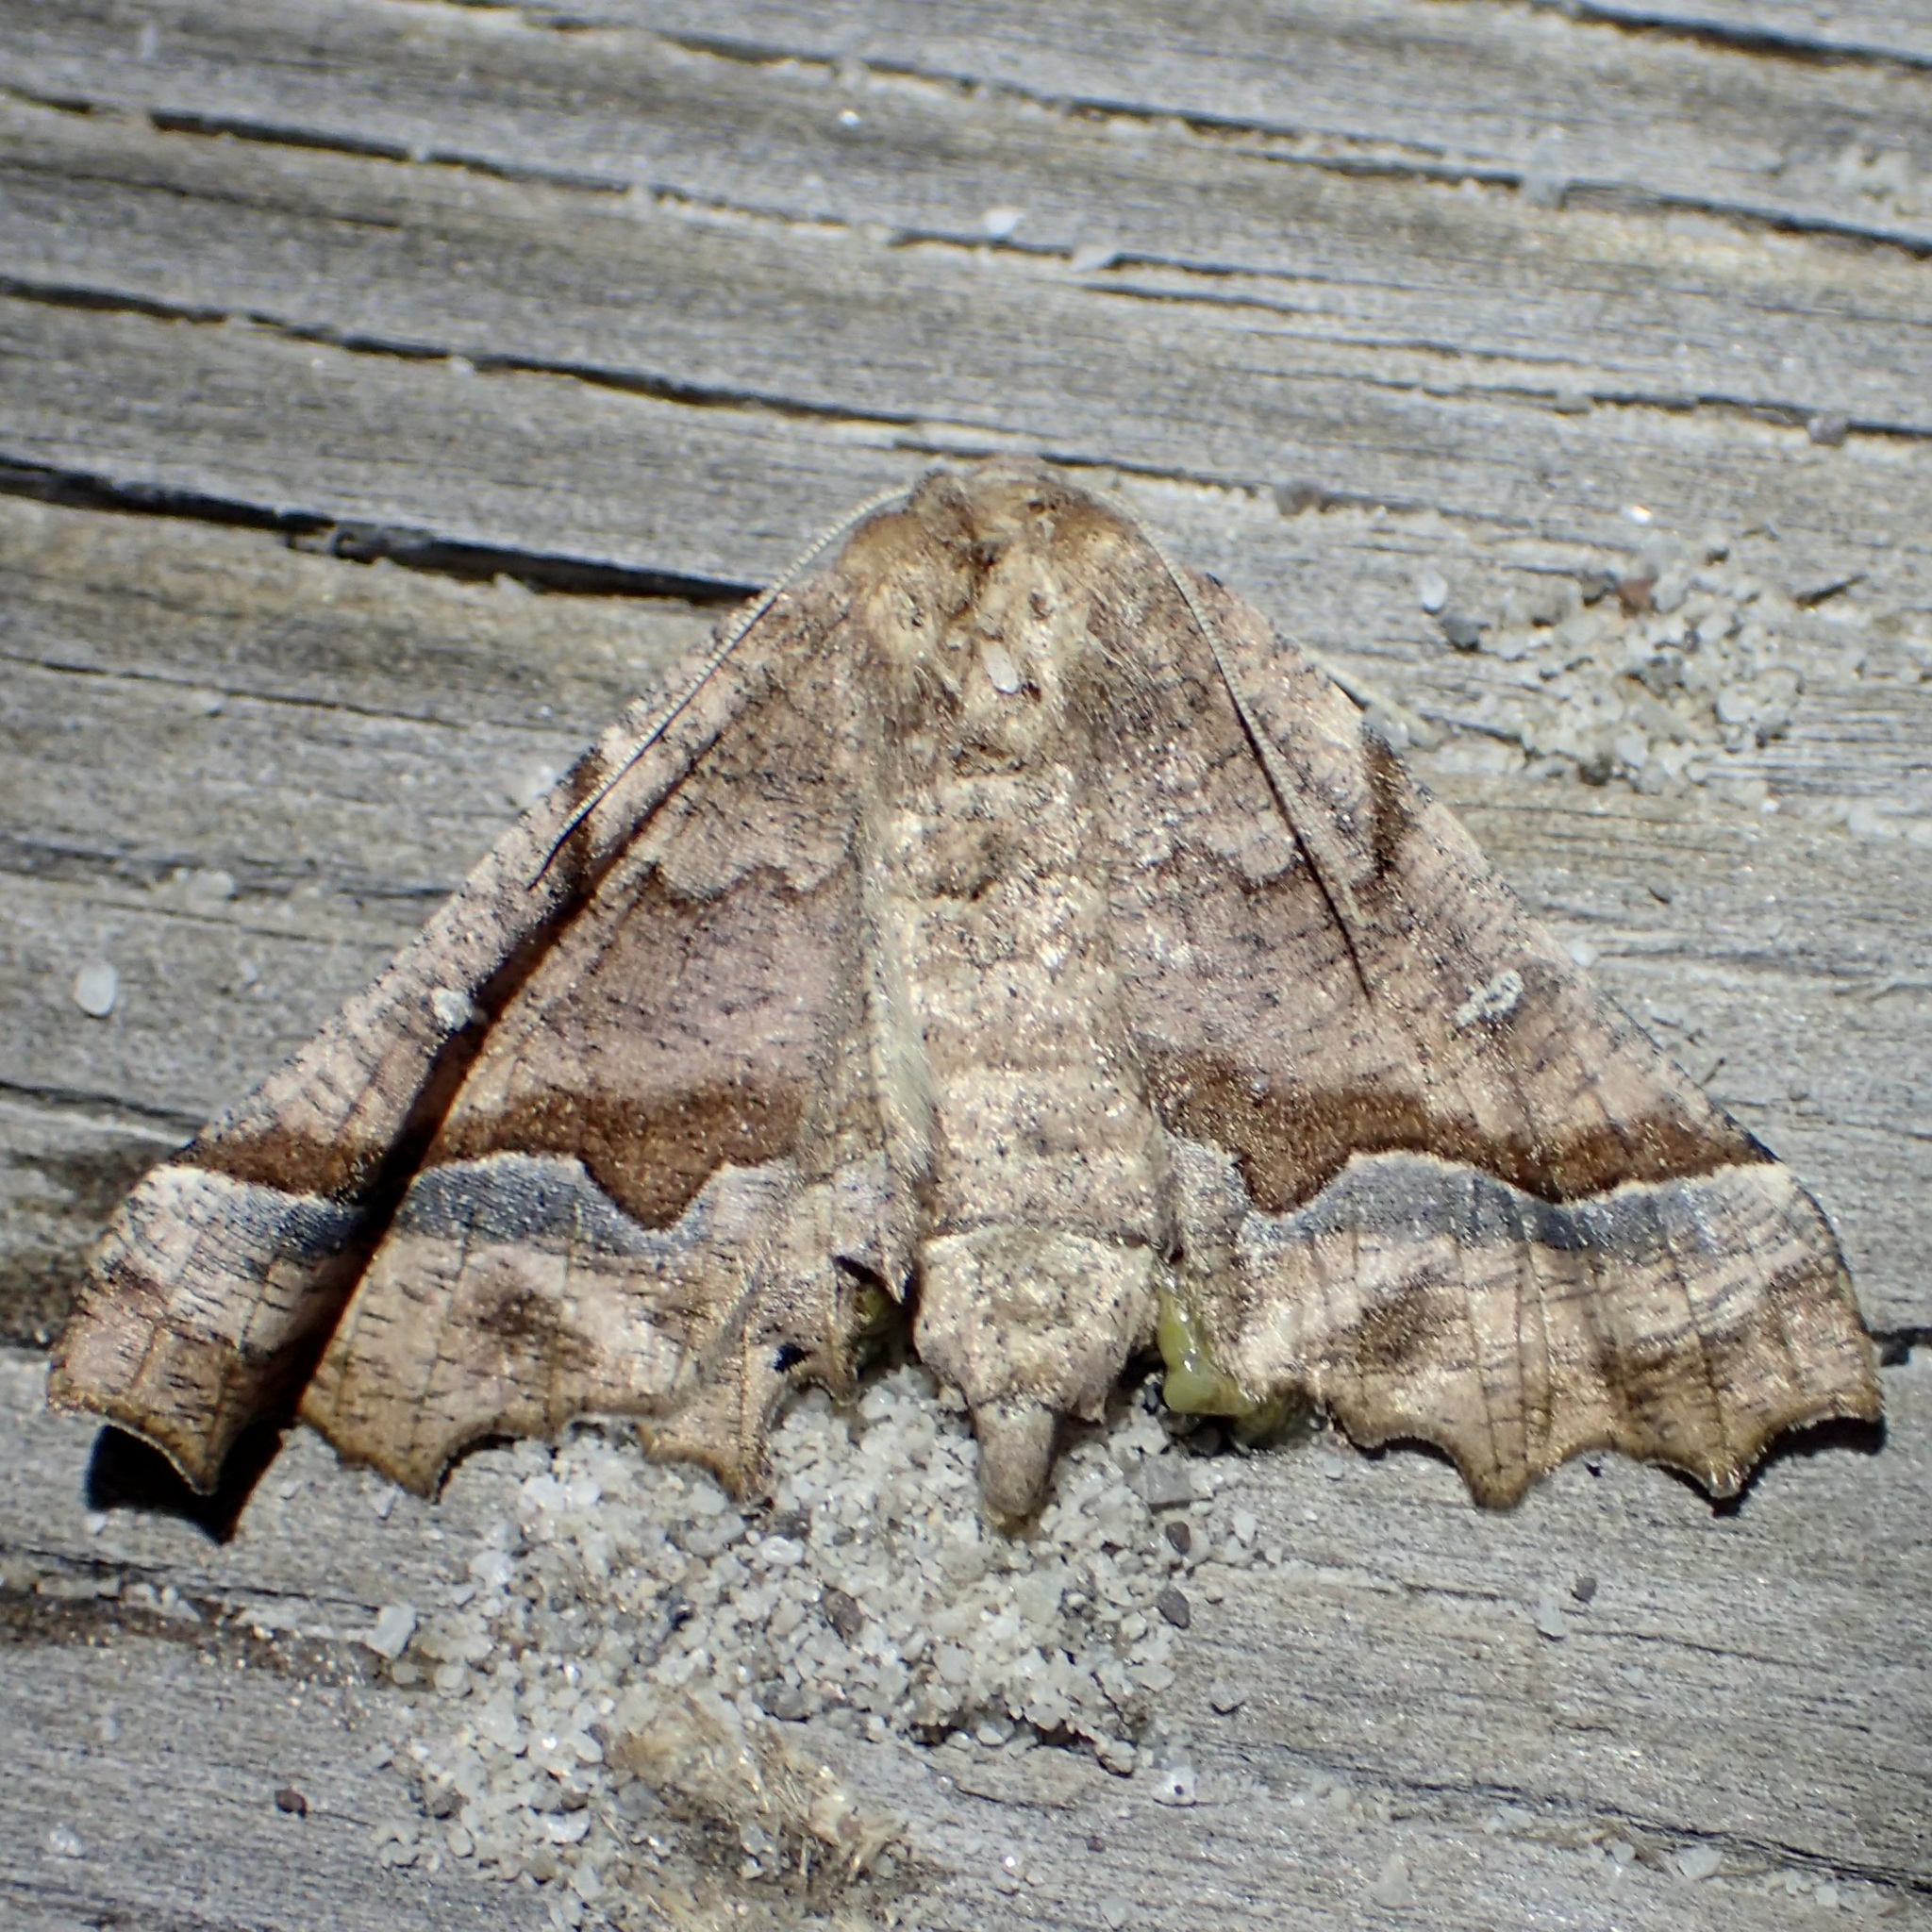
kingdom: Animalia
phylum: Arthropoda
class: Insecta
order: Lepidoptera
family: Geometridae
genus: Pero
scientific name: Pero flavisaria
